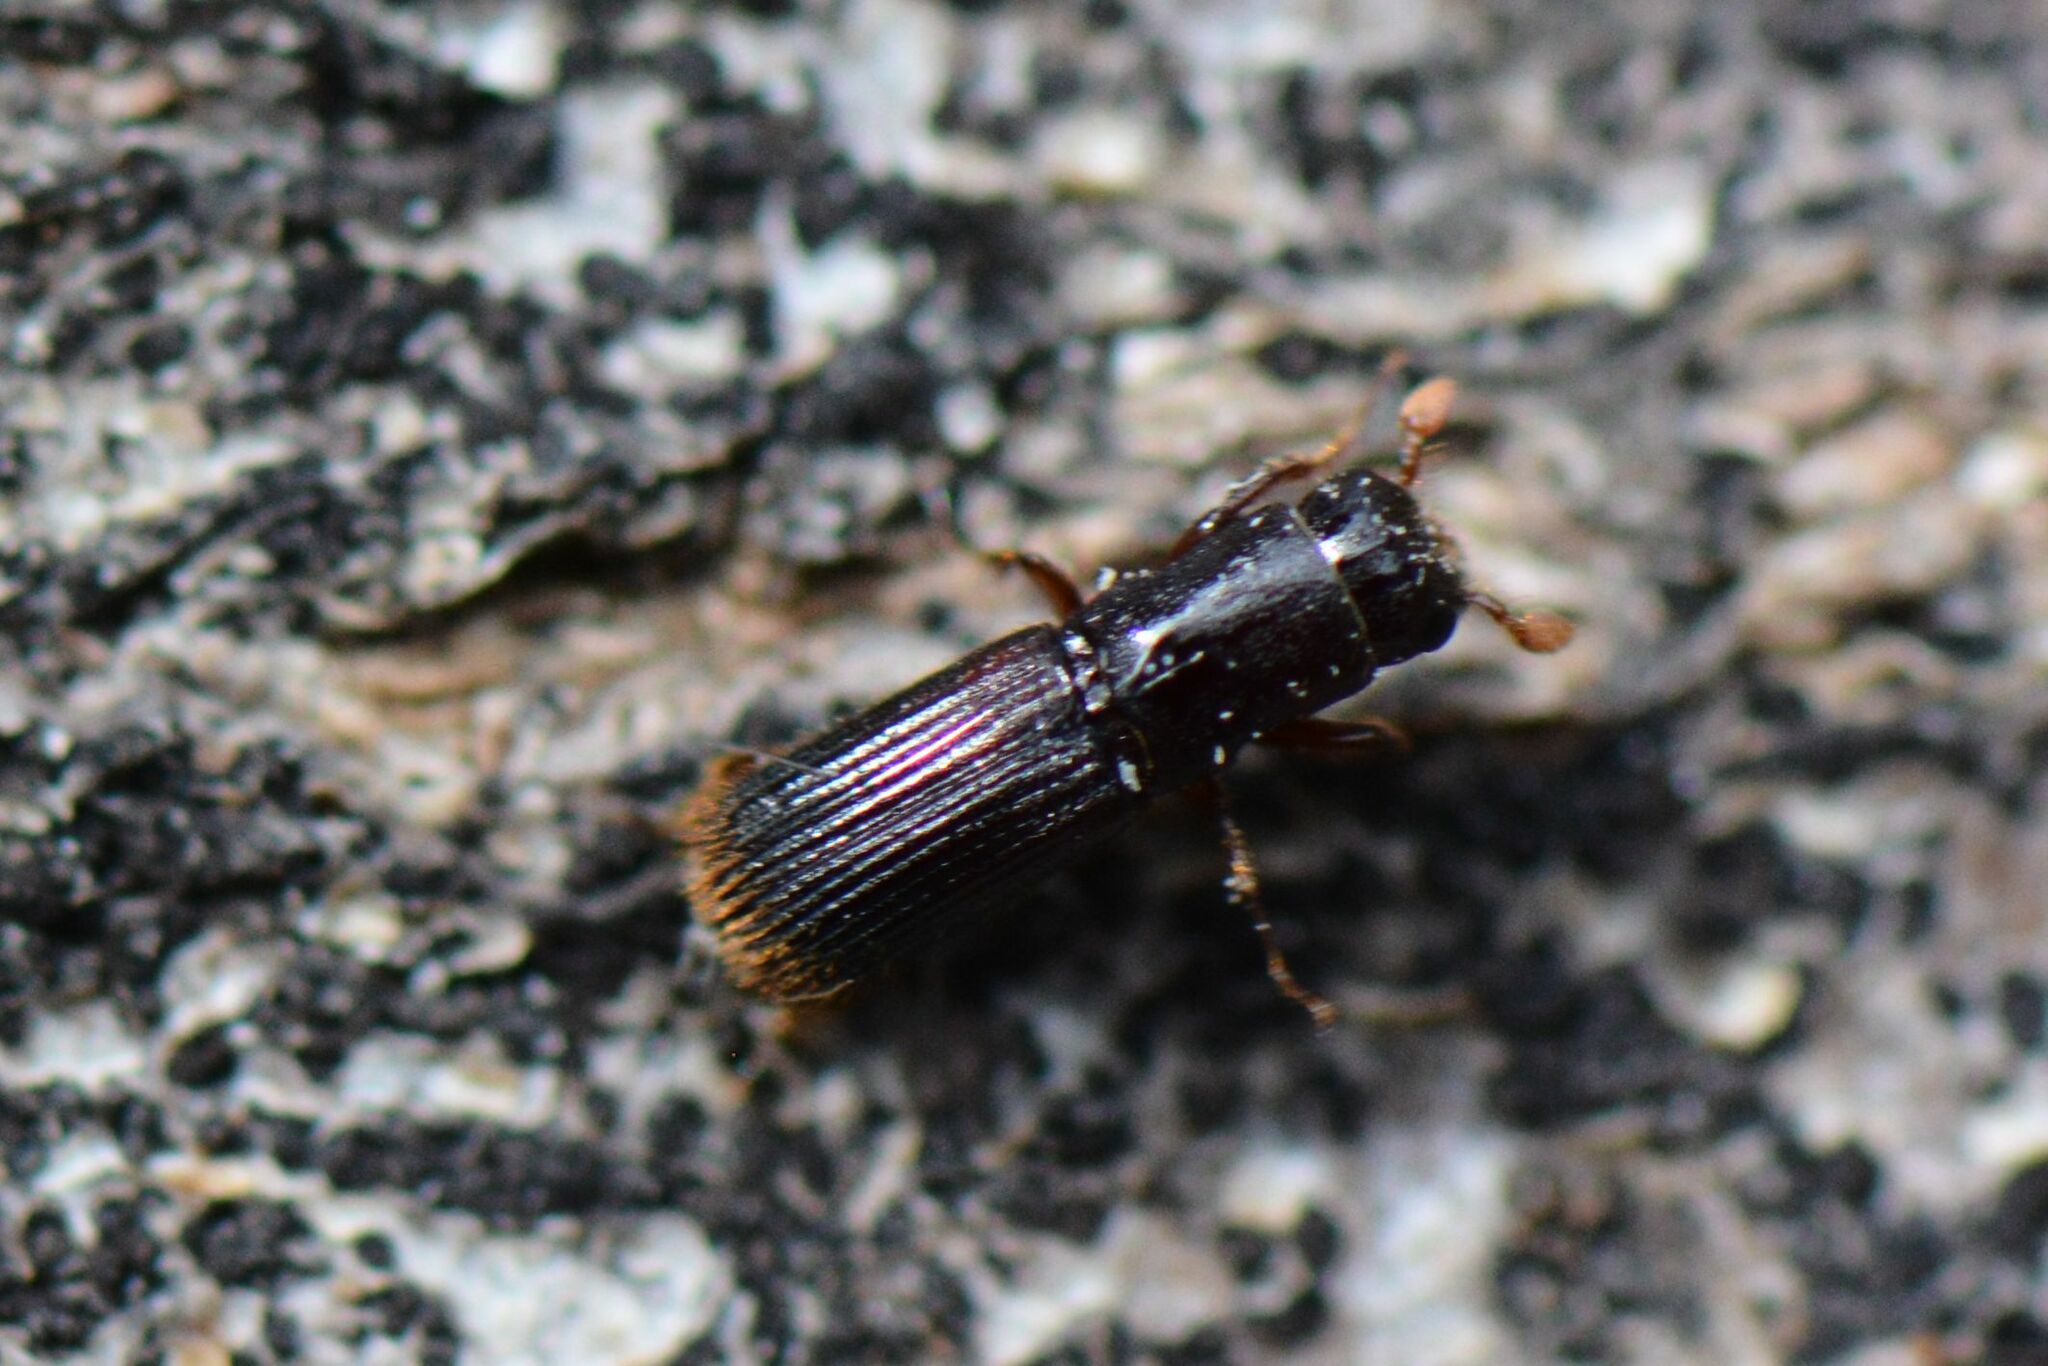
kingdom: Animalia
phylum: Arthropoda
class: Insecta
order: Coleoptera
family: Curculionidae
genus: Platypus
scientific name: Platypus cylindrus
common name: Pinhole borer
